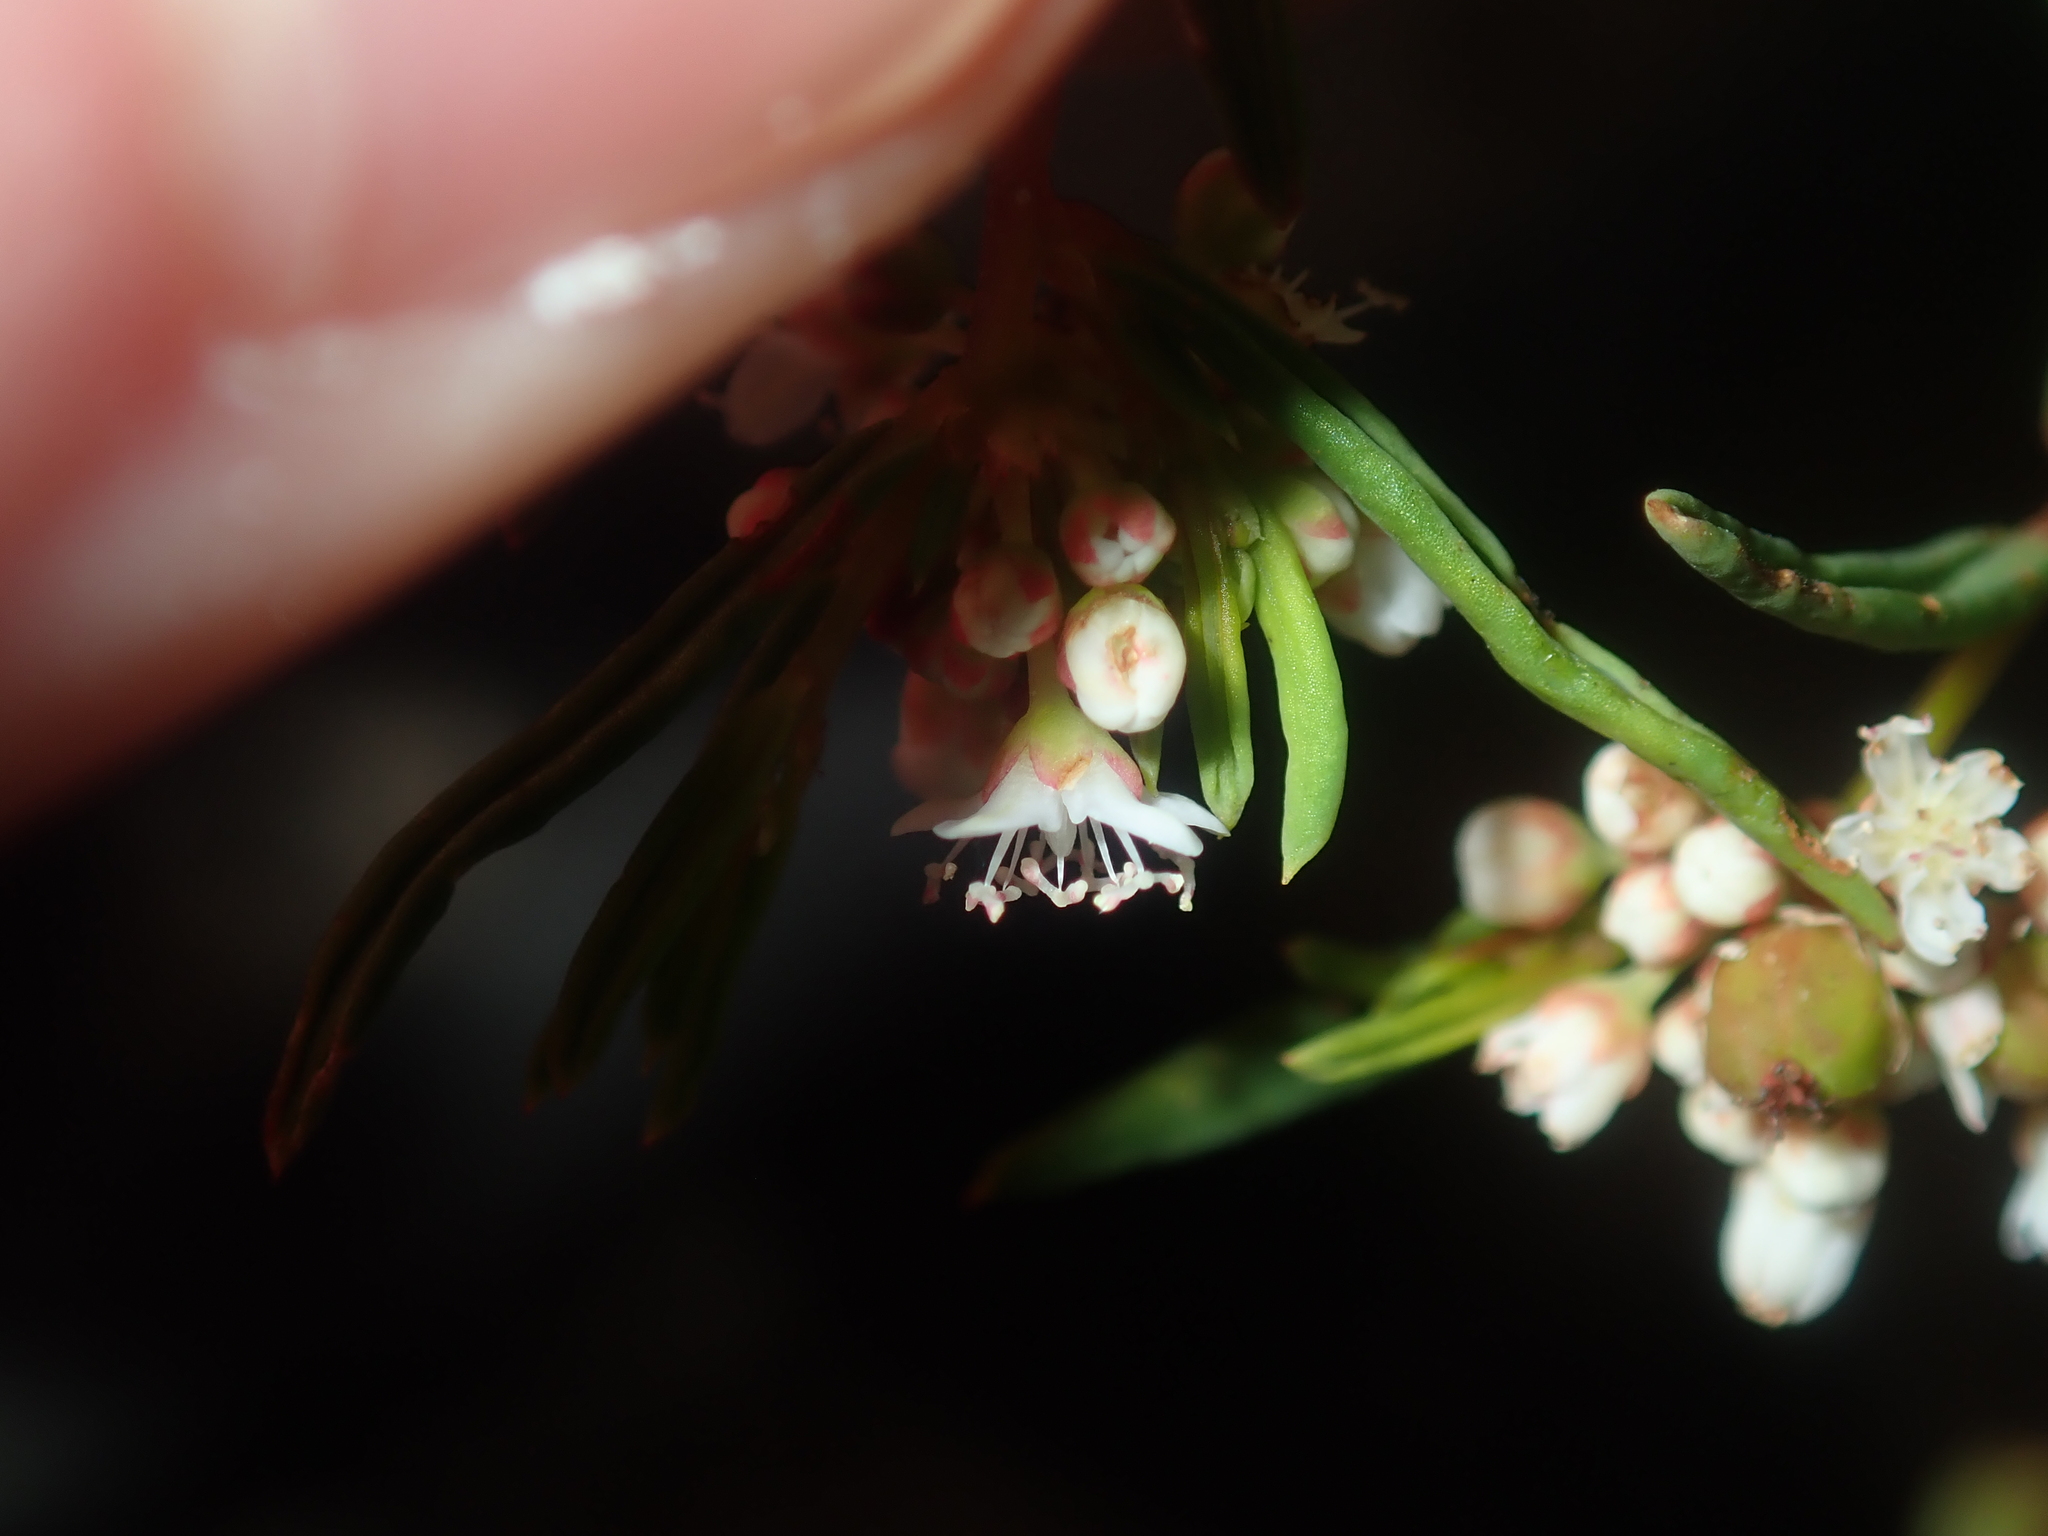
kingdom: Plantae
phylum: Tracheophyta
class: Magnoliopsida
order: Malpighiales
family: Euphorbiaceae
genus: Monotaxis
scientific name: Monotaxis bracteata
